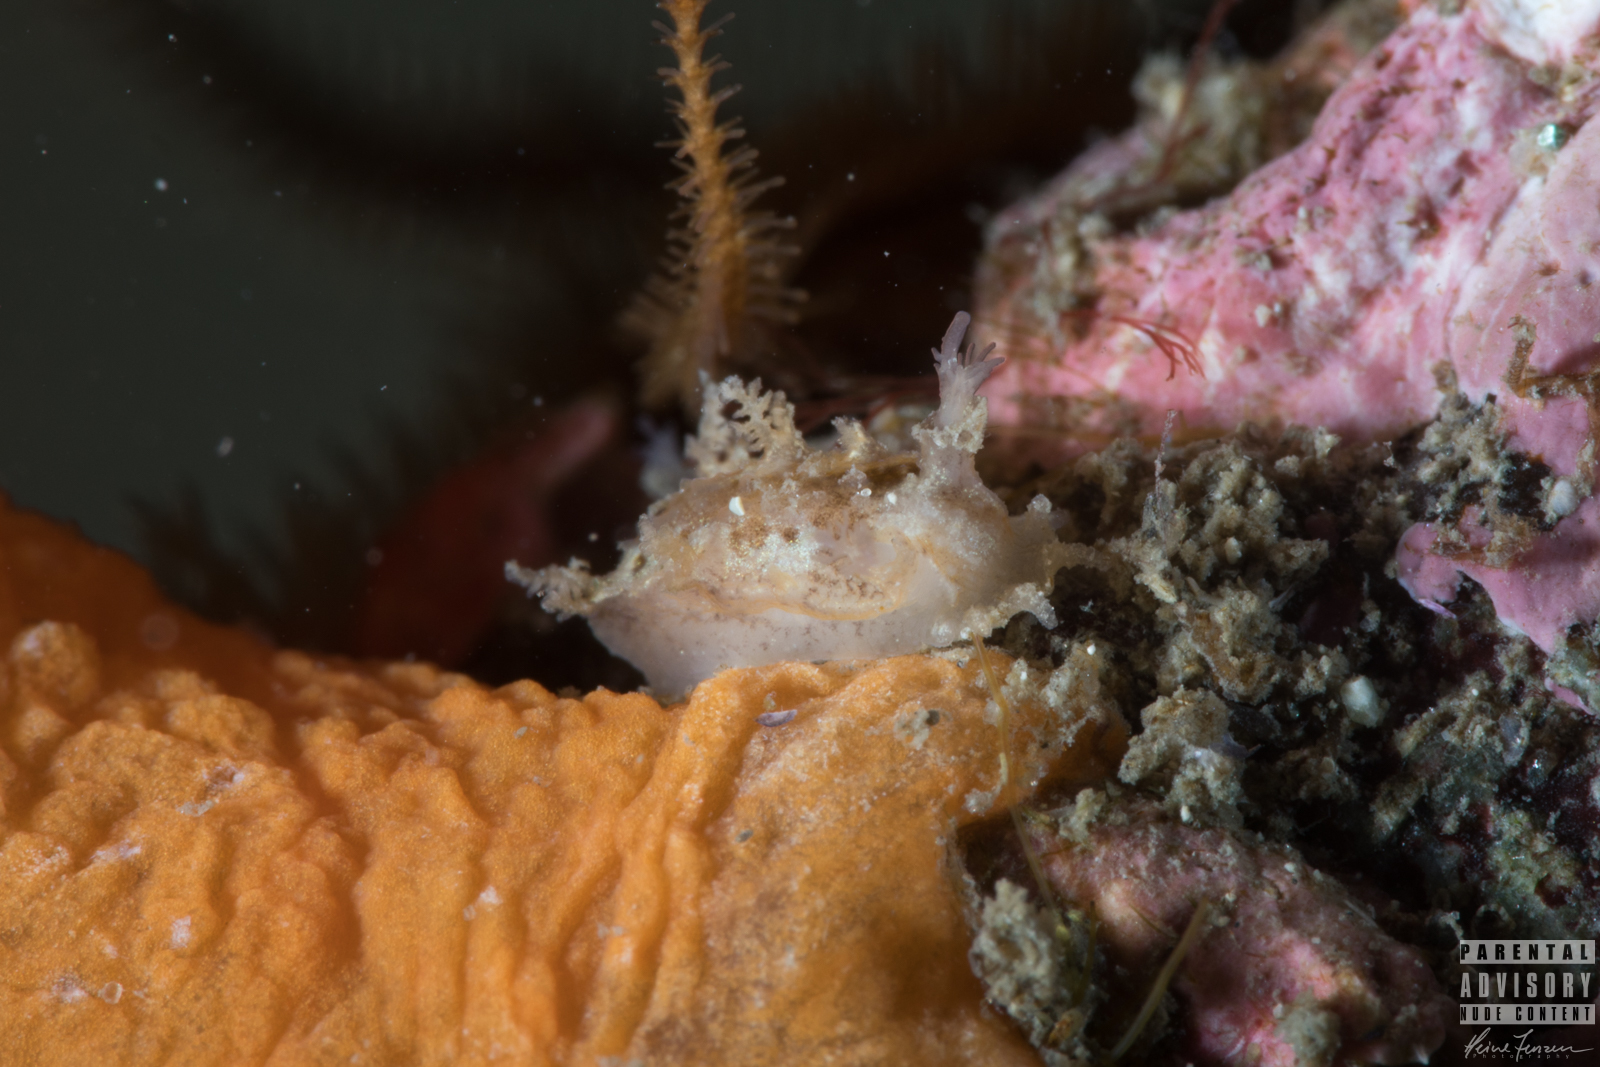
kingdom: Animalia
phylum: Mollusca
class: Gastropoda
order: Nudibranchia
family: Tritoniidae
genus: Duvaucelia
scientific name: Duvaucelia plebeia
